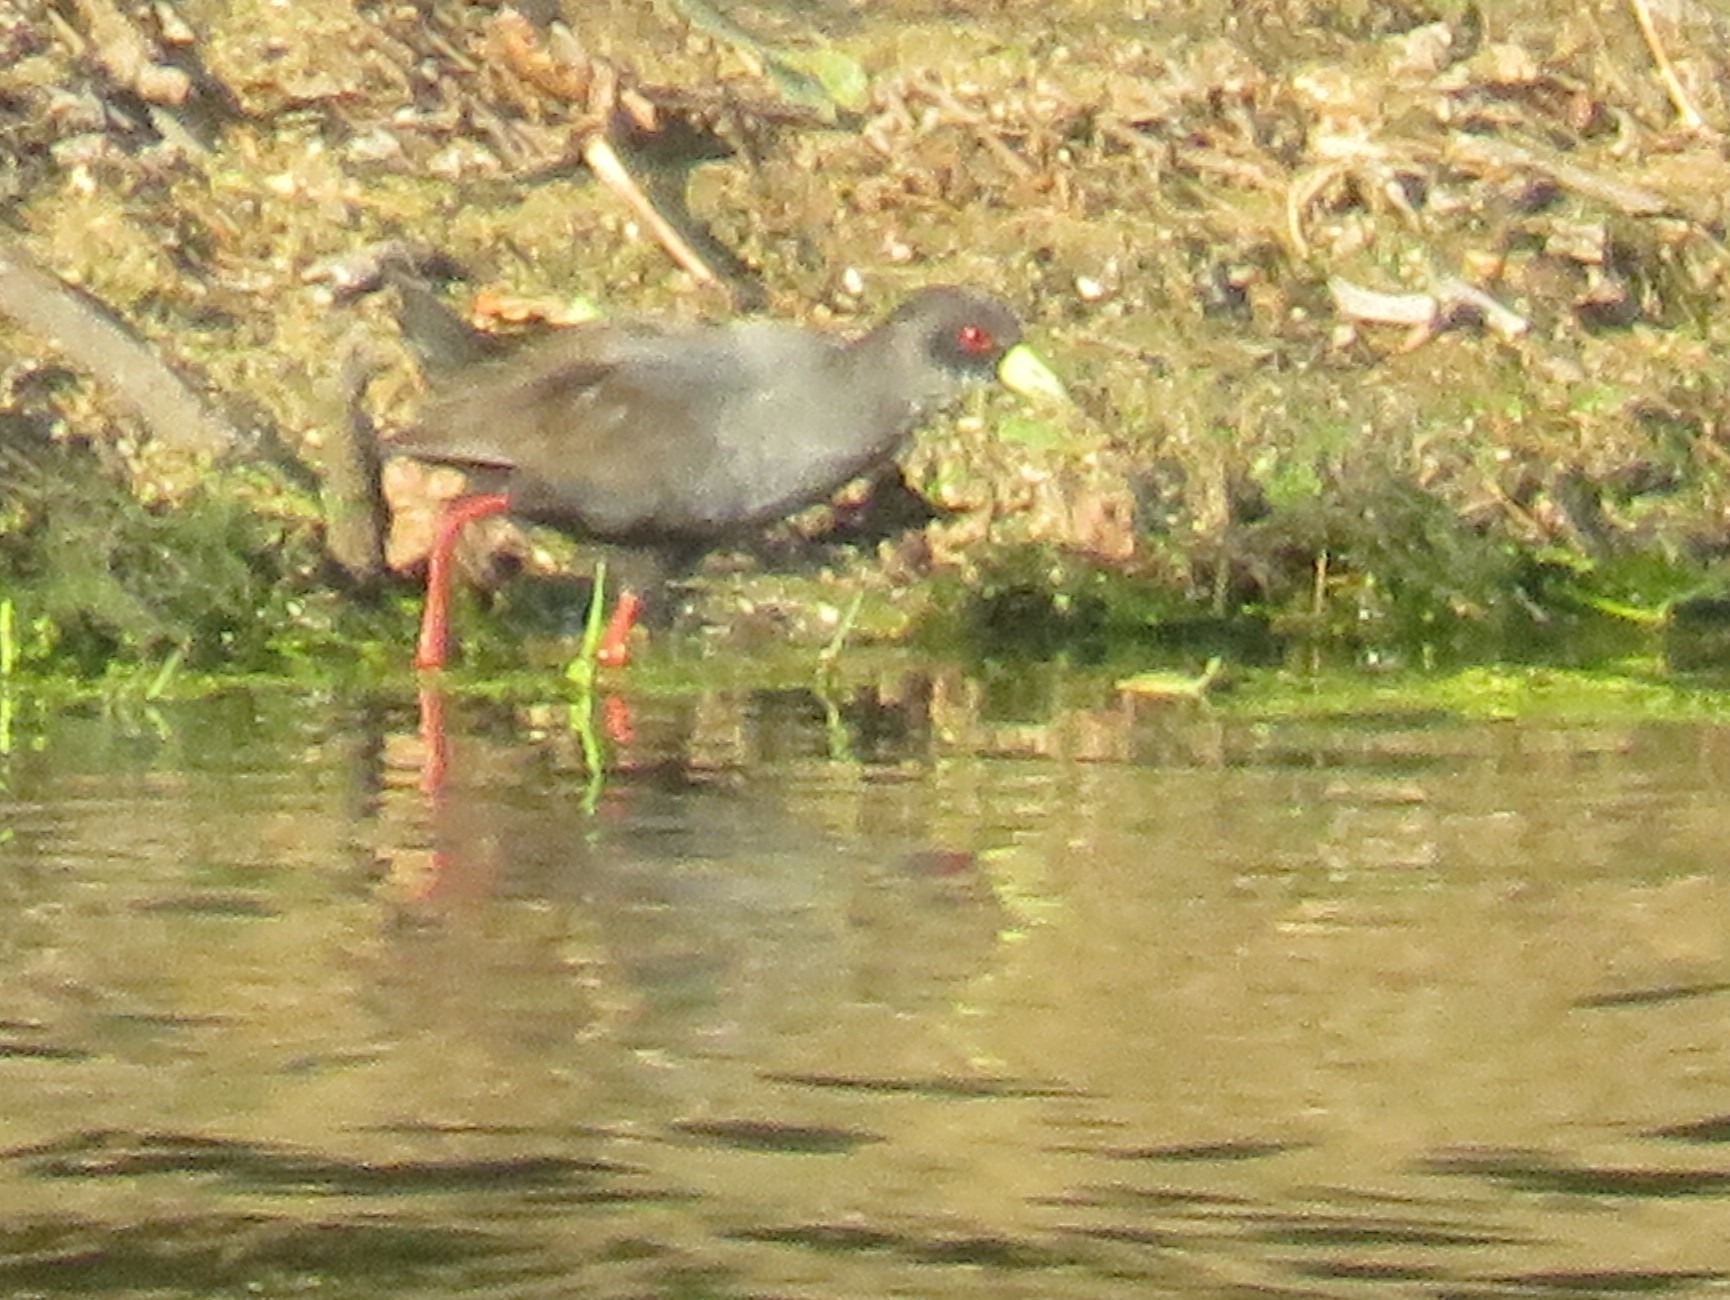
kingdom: Animalia
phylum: Chordata
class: Aves
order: Gruiformes
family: Rallidae
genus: Amaurornis
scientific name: Amaurornis flavirostra
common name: Black crake
